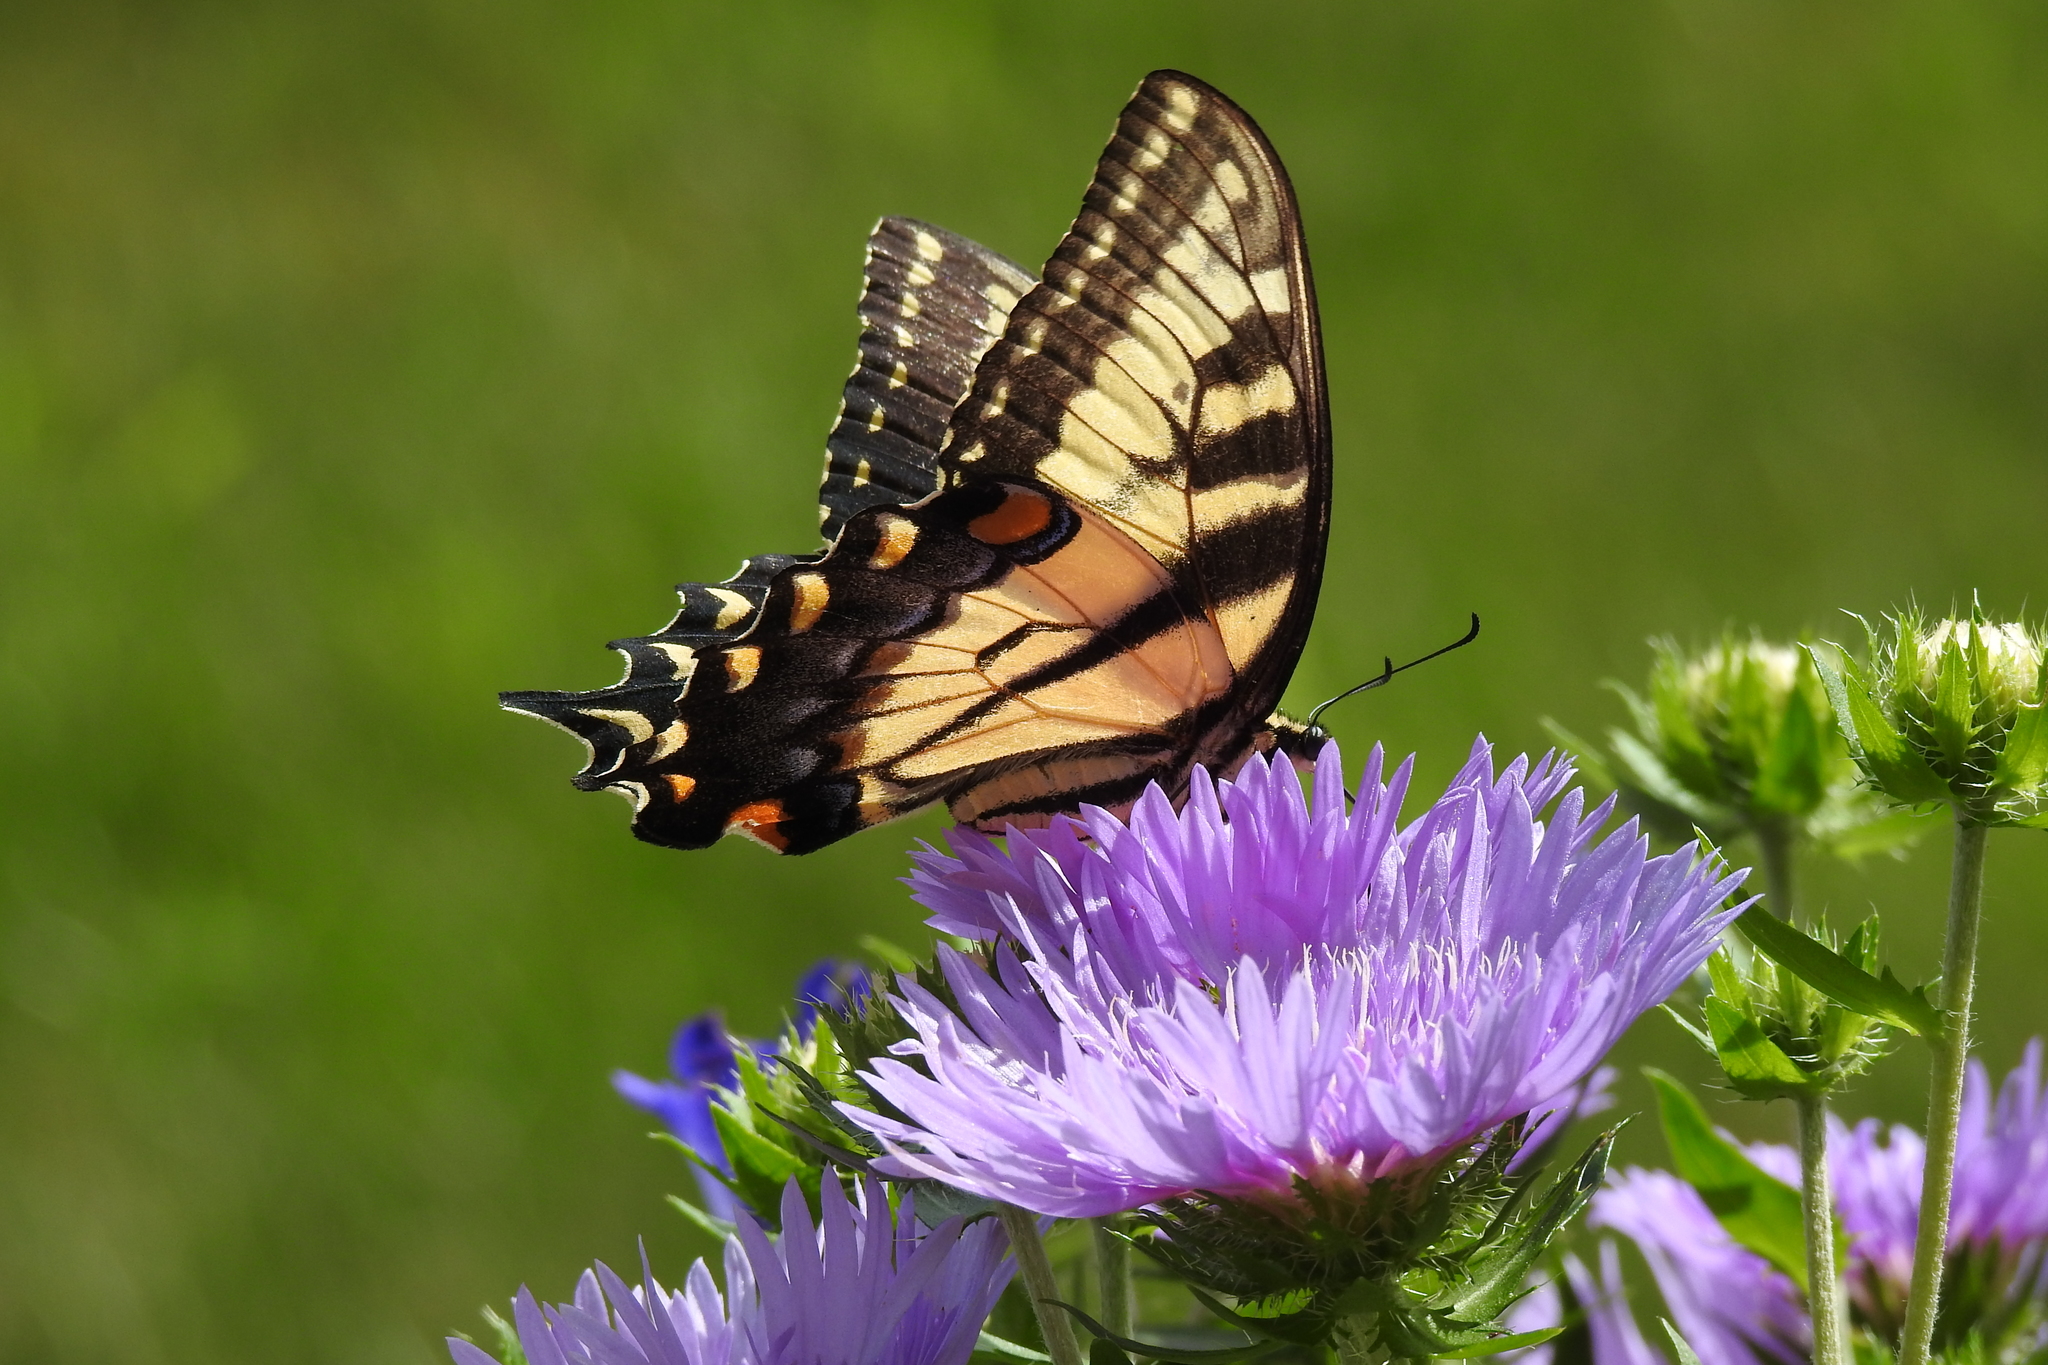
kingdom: Animalia
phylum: Arthropoda
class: Insecta
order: Lepidoptera
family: Papilionidae
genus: Papilio
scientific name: Papilio glaucus
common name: Tiger swallowtail
